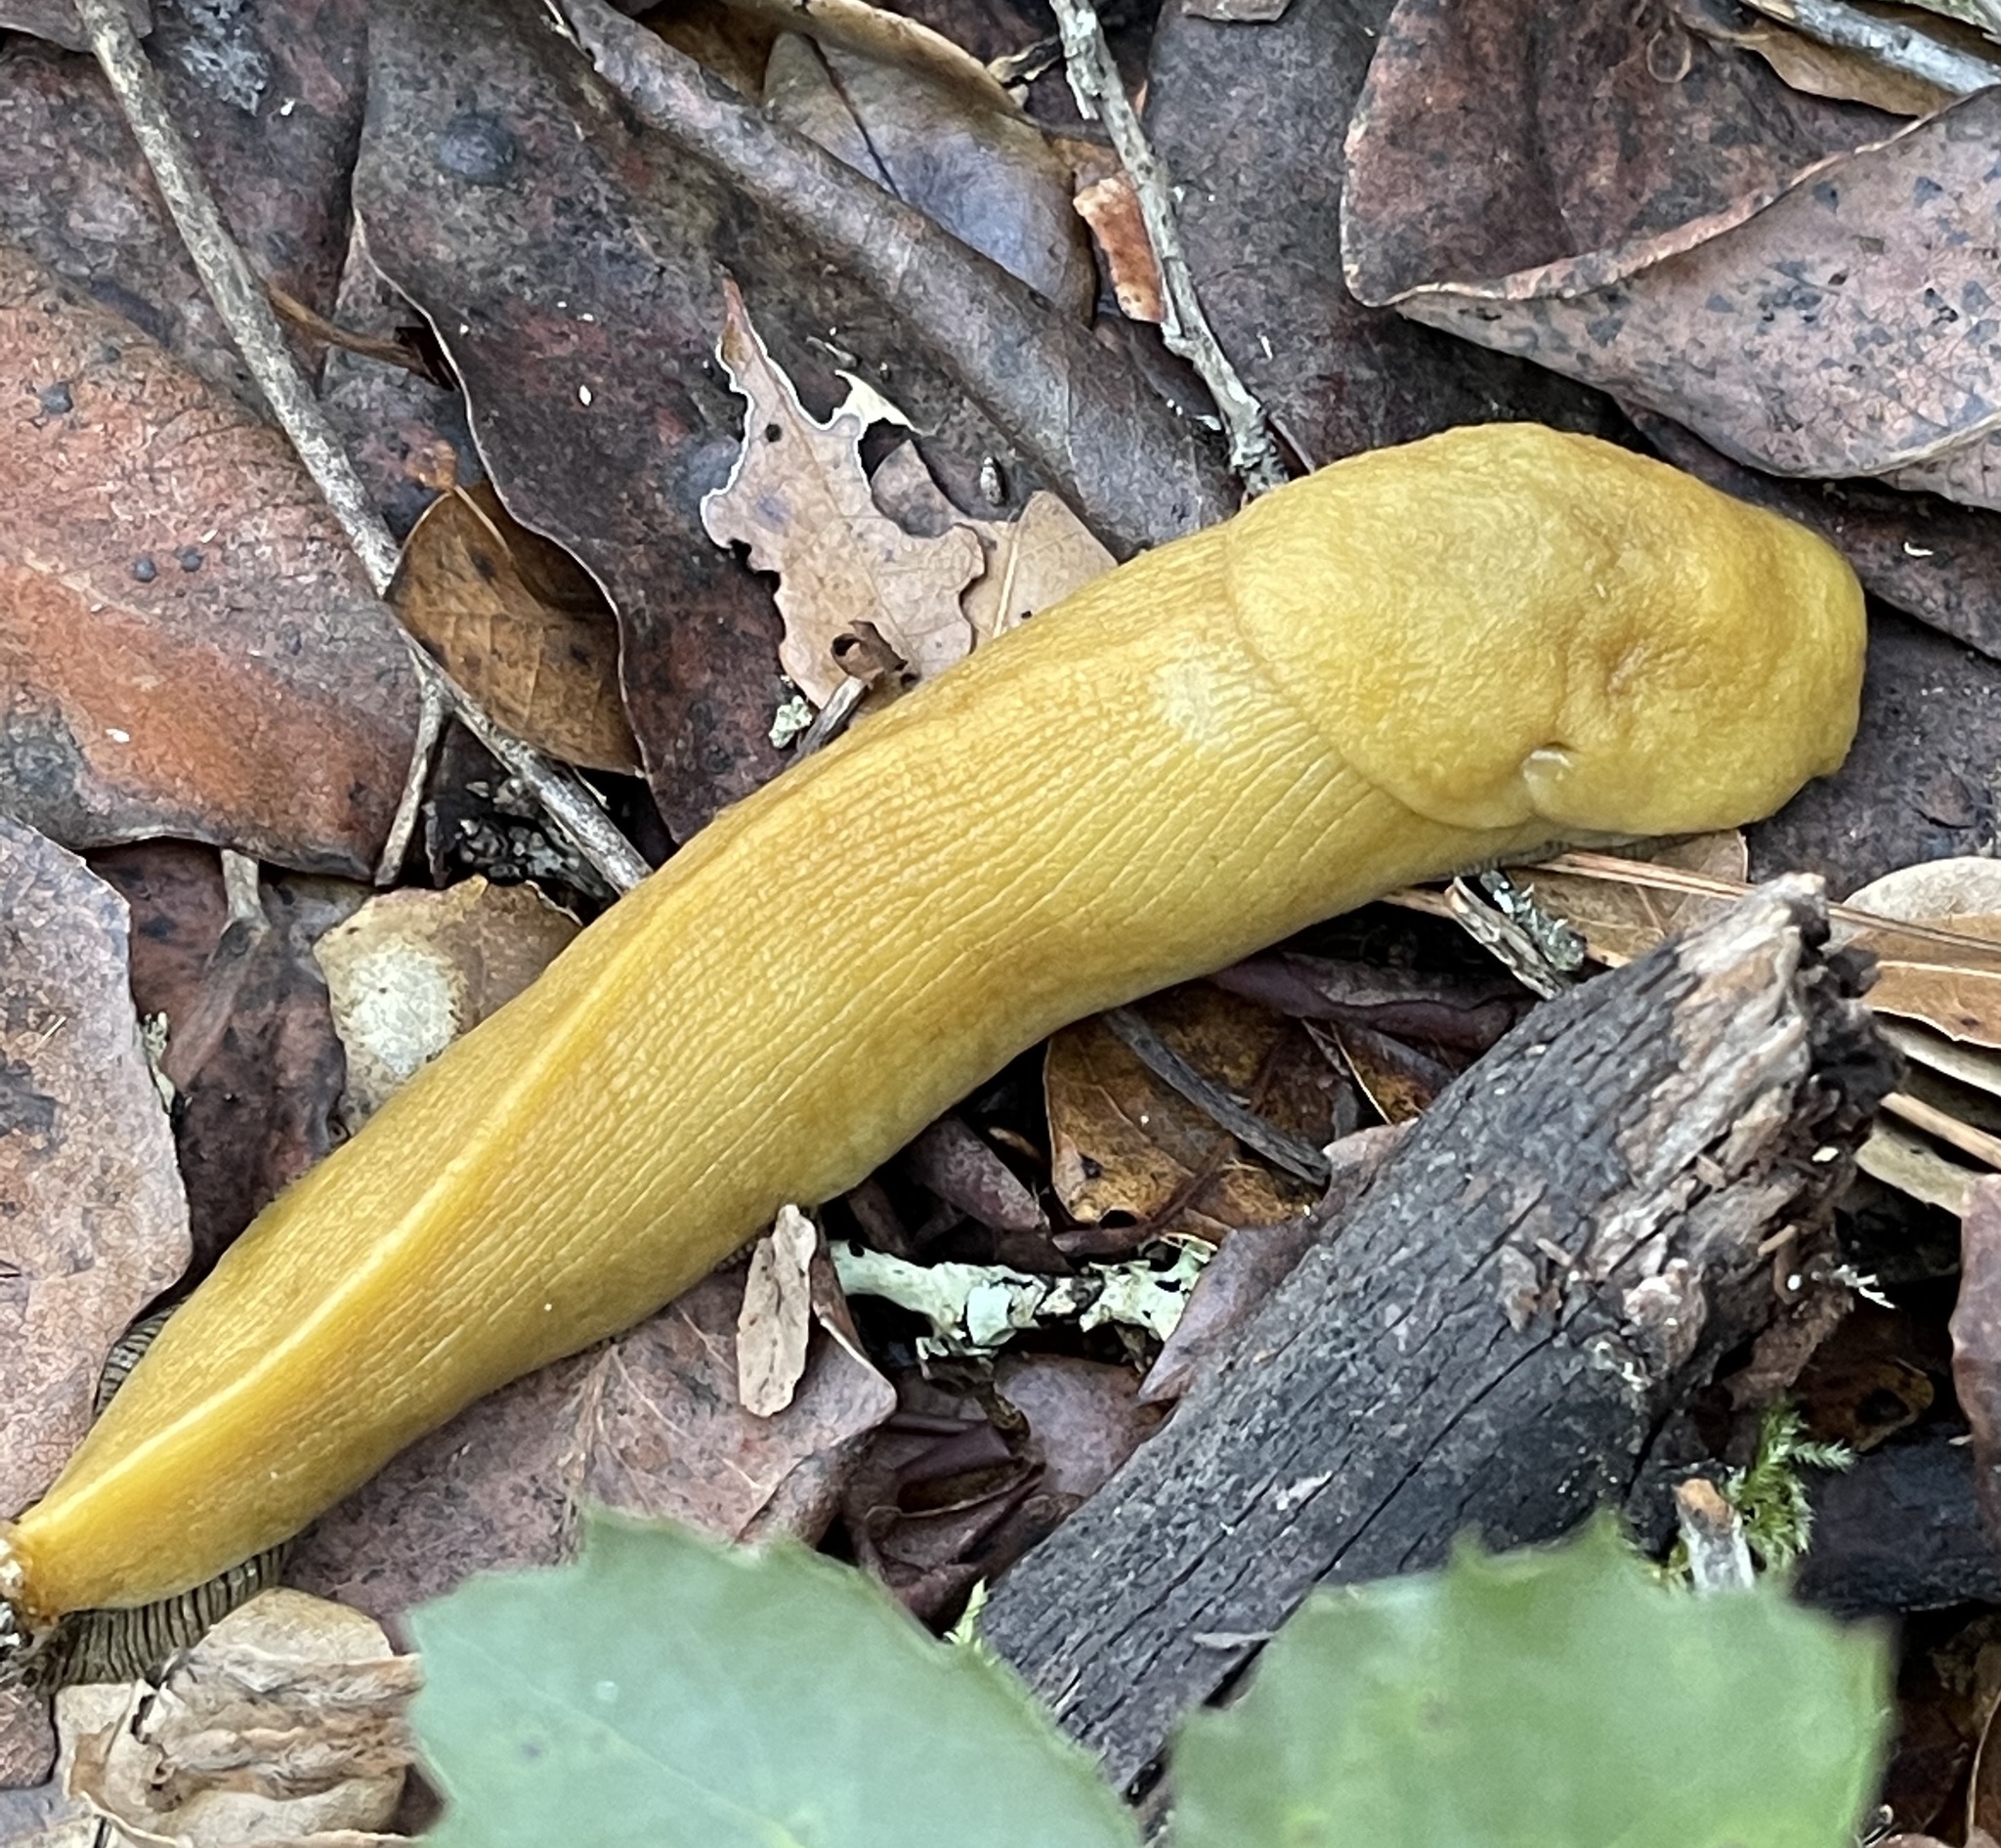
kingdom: Animalia
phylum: Mollusca
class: Gastropoda
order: Stylommatophora
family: Ariolimacidae
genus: Ariolimax
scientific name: Ariolimax dolichophallus
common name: Slender banana slug
